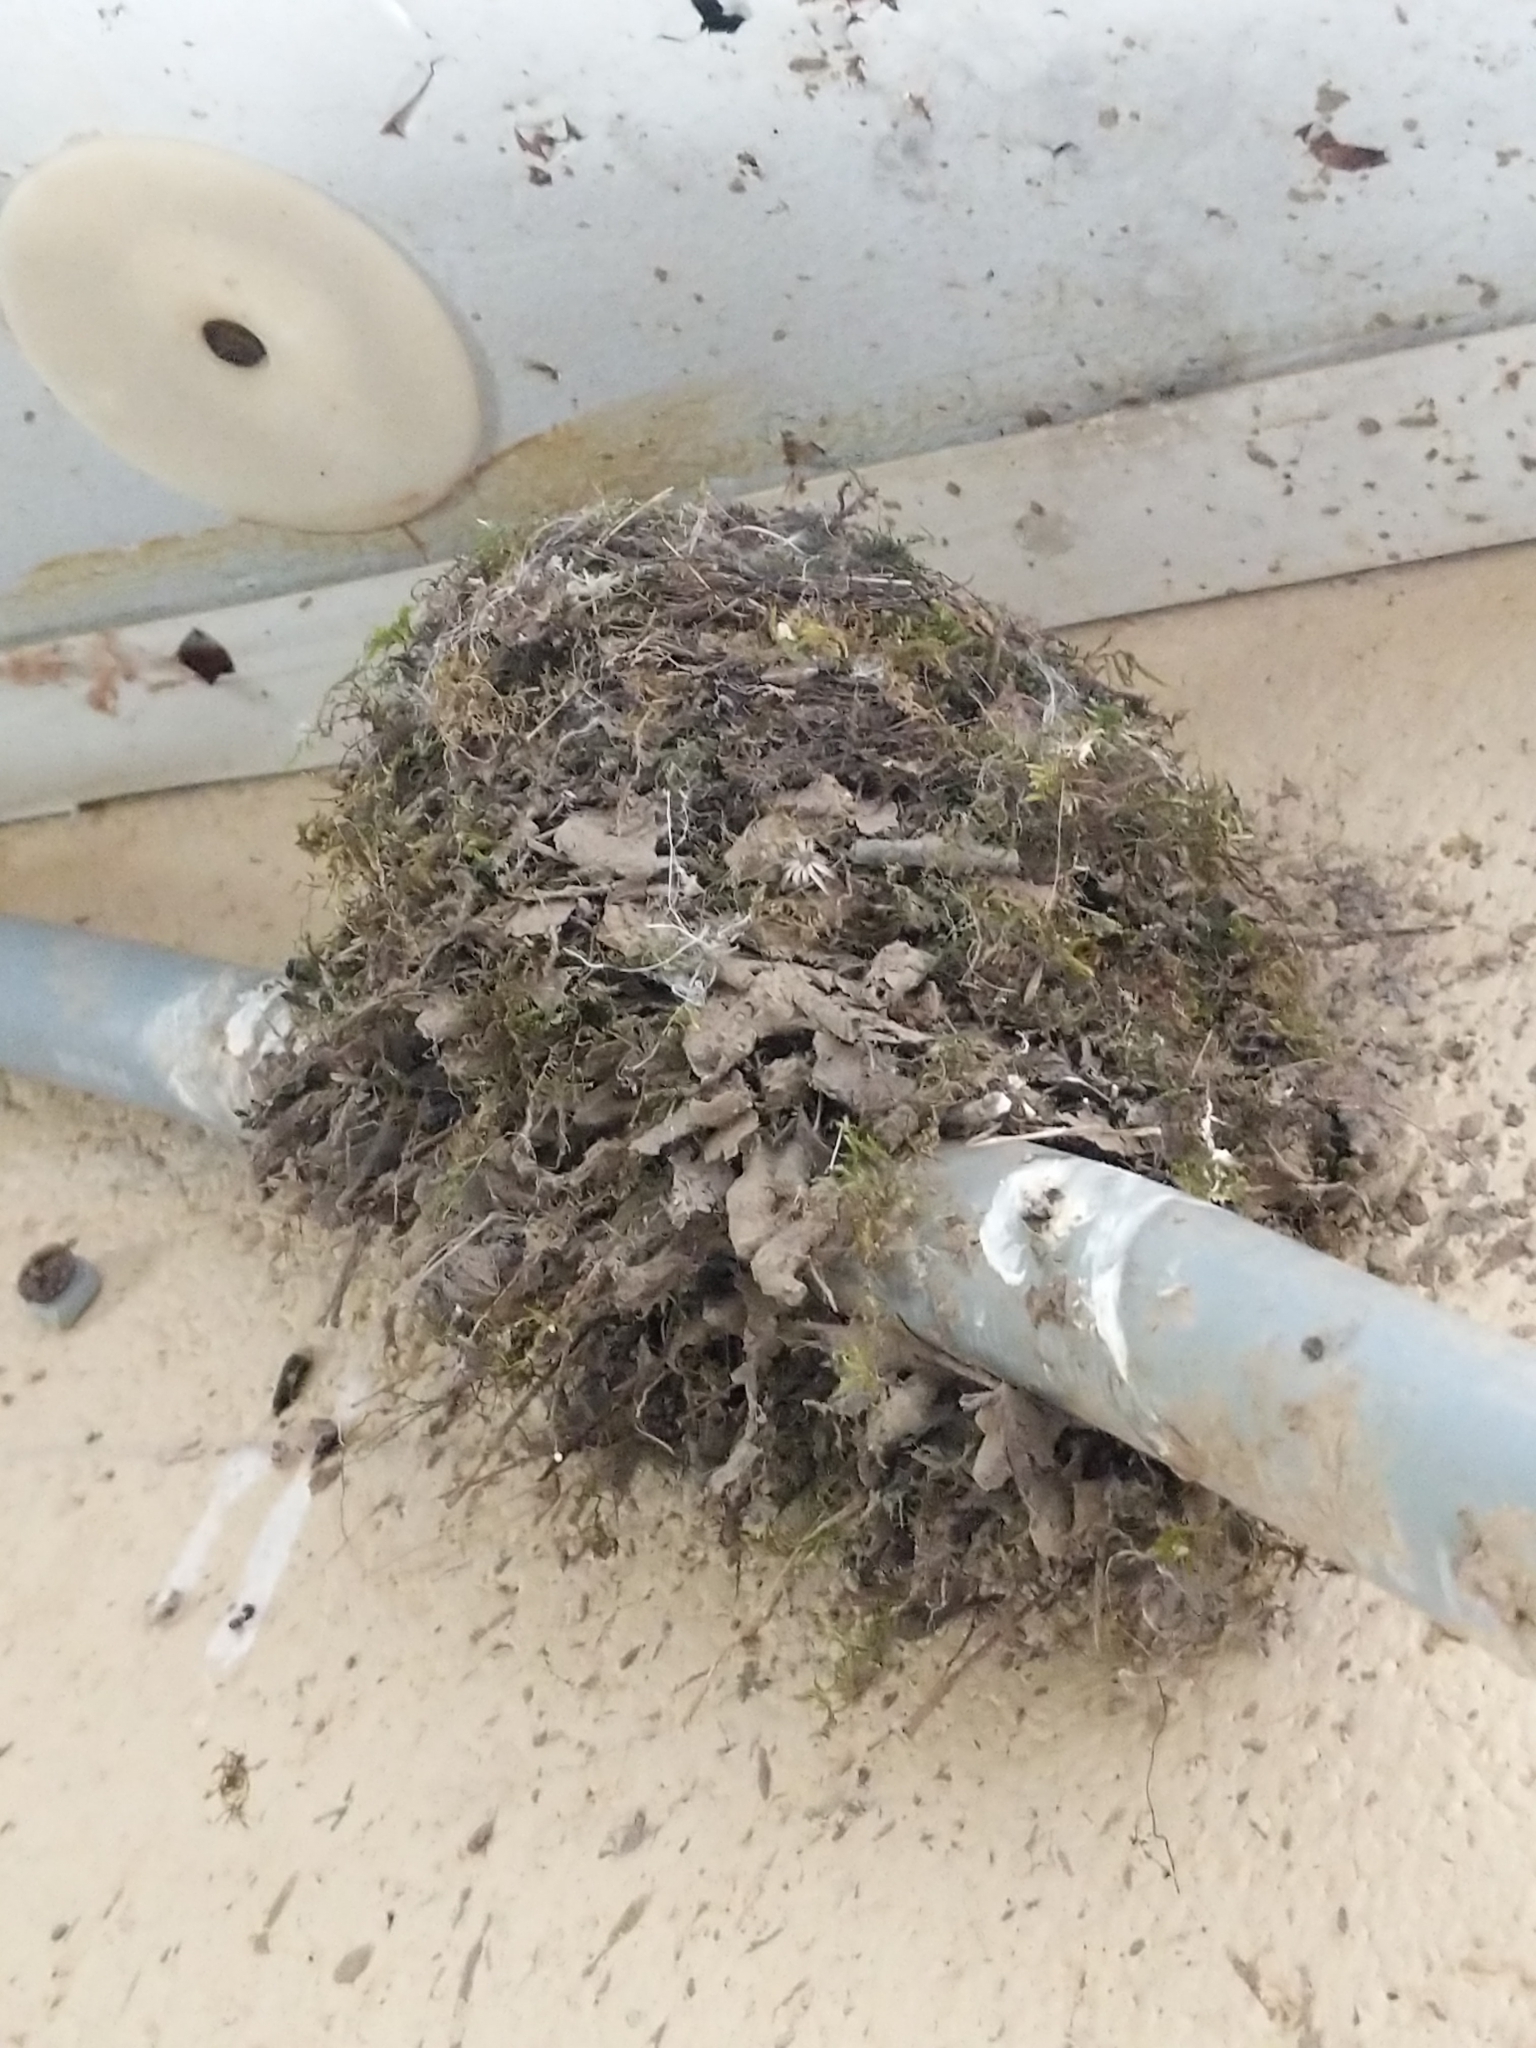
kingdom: Animalia
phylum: Chordata
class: Aves
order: Passeriformes
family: Tyrannidae
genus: Sayornis
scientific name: Sayornis phoebe
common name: Eastern phoebe
